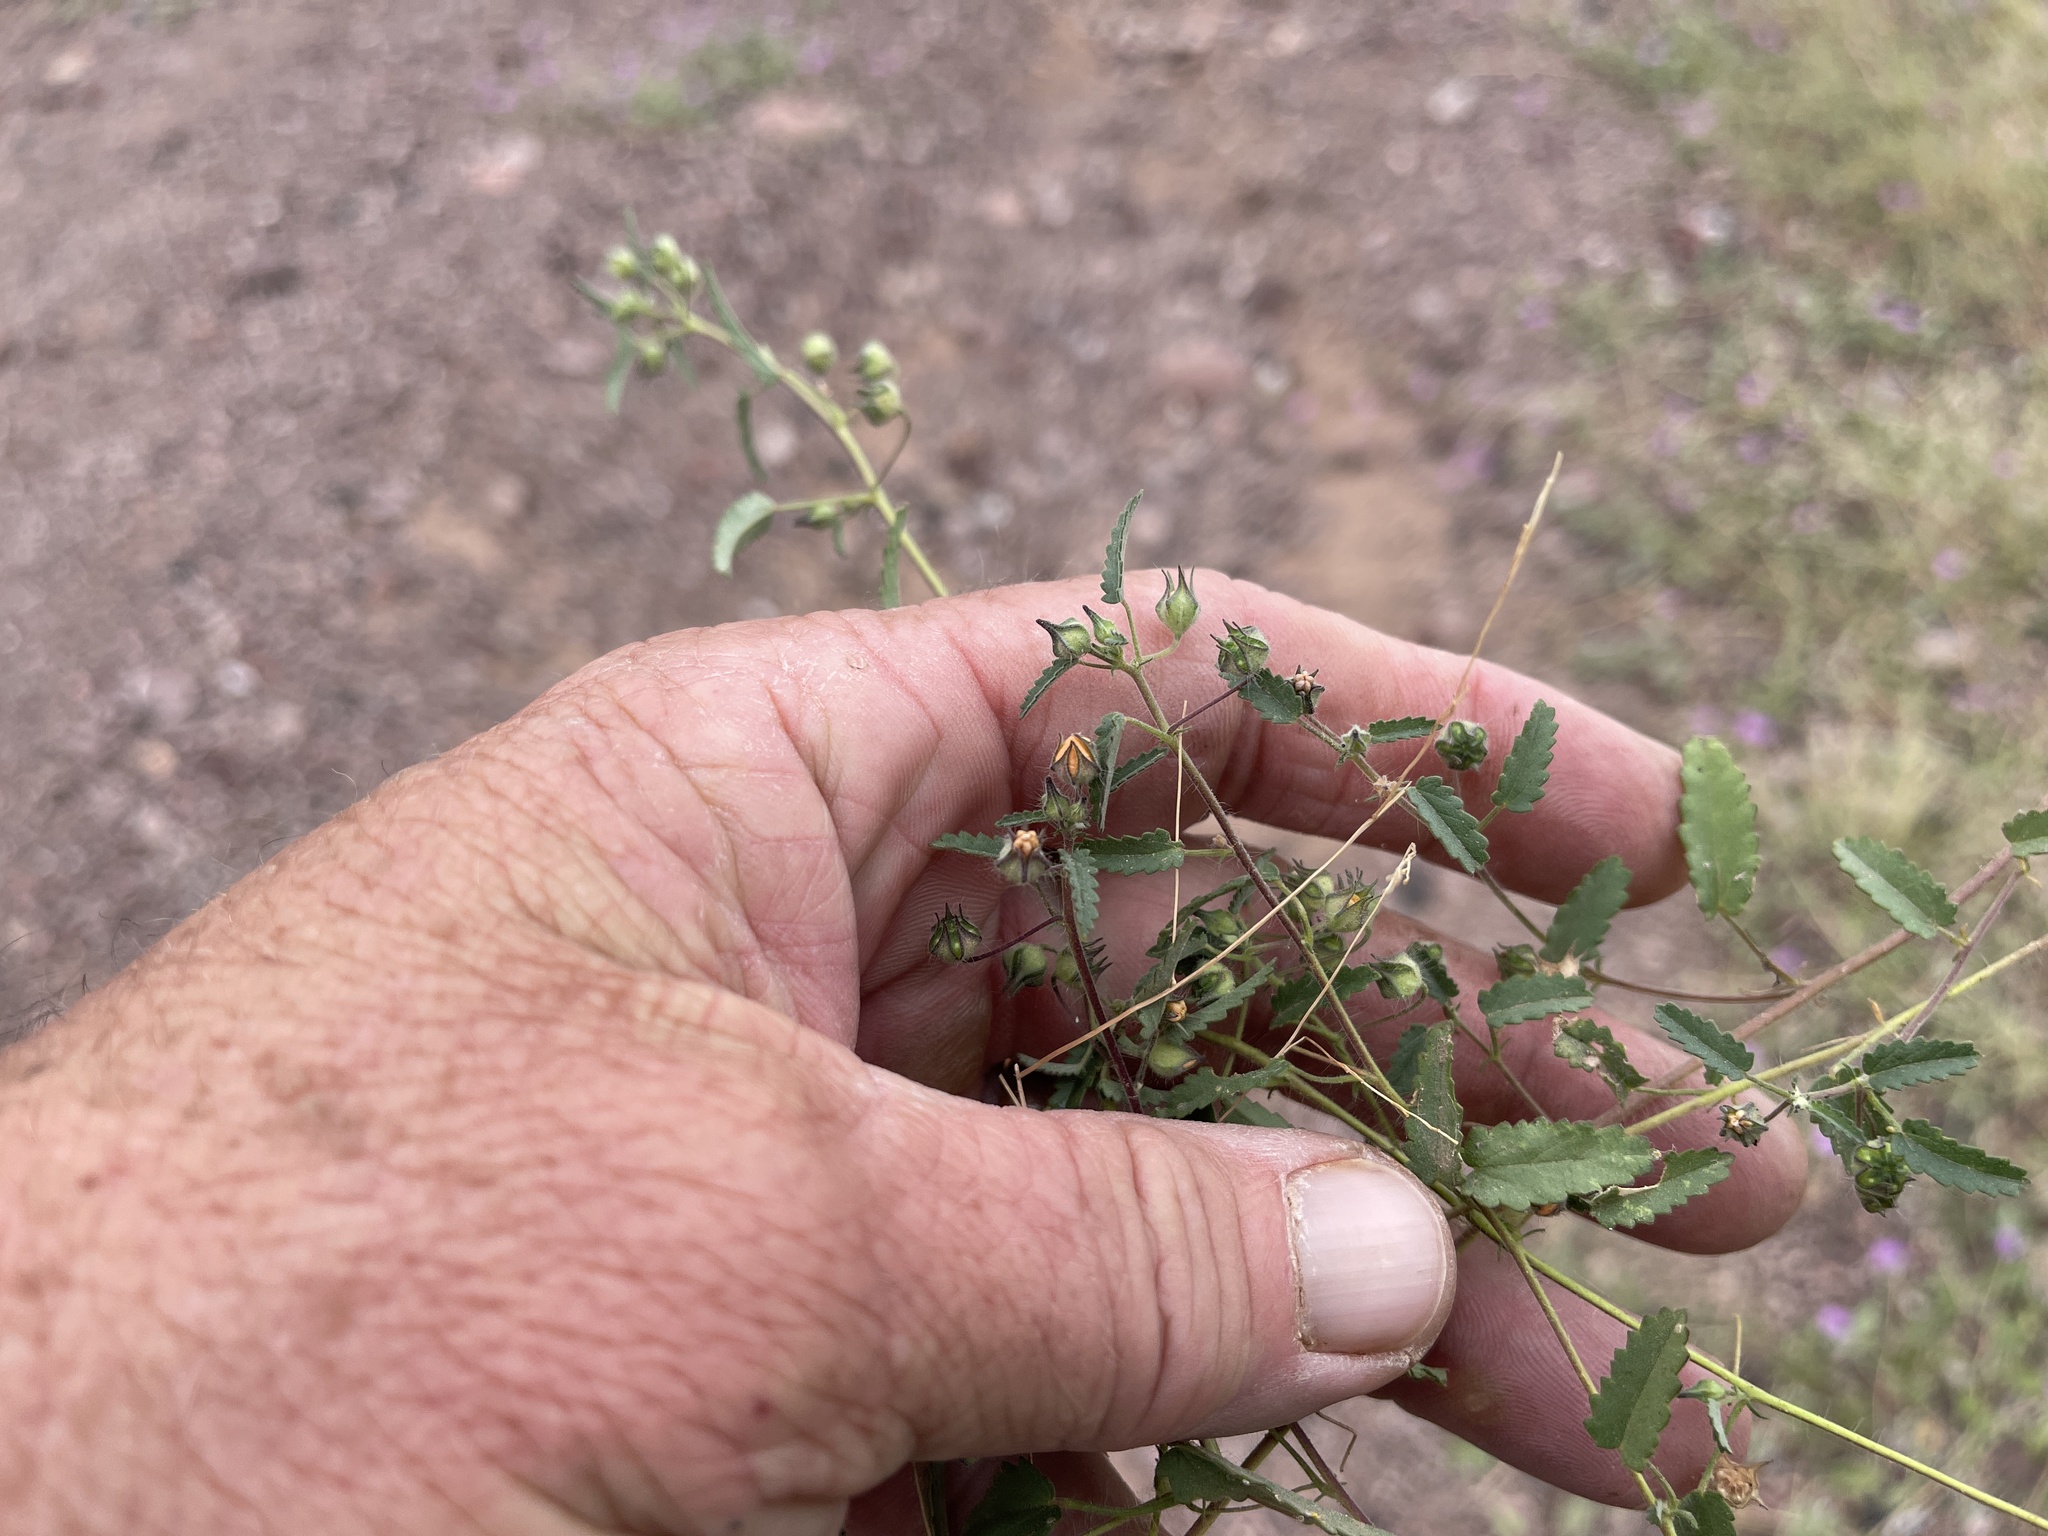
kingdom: Plantae
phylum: Tracheophyta
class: Magnoliopsida
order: Malvales
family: Malvaceae
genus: Sida
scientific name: Sida abutilifolia
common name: Spreading fanpetals
